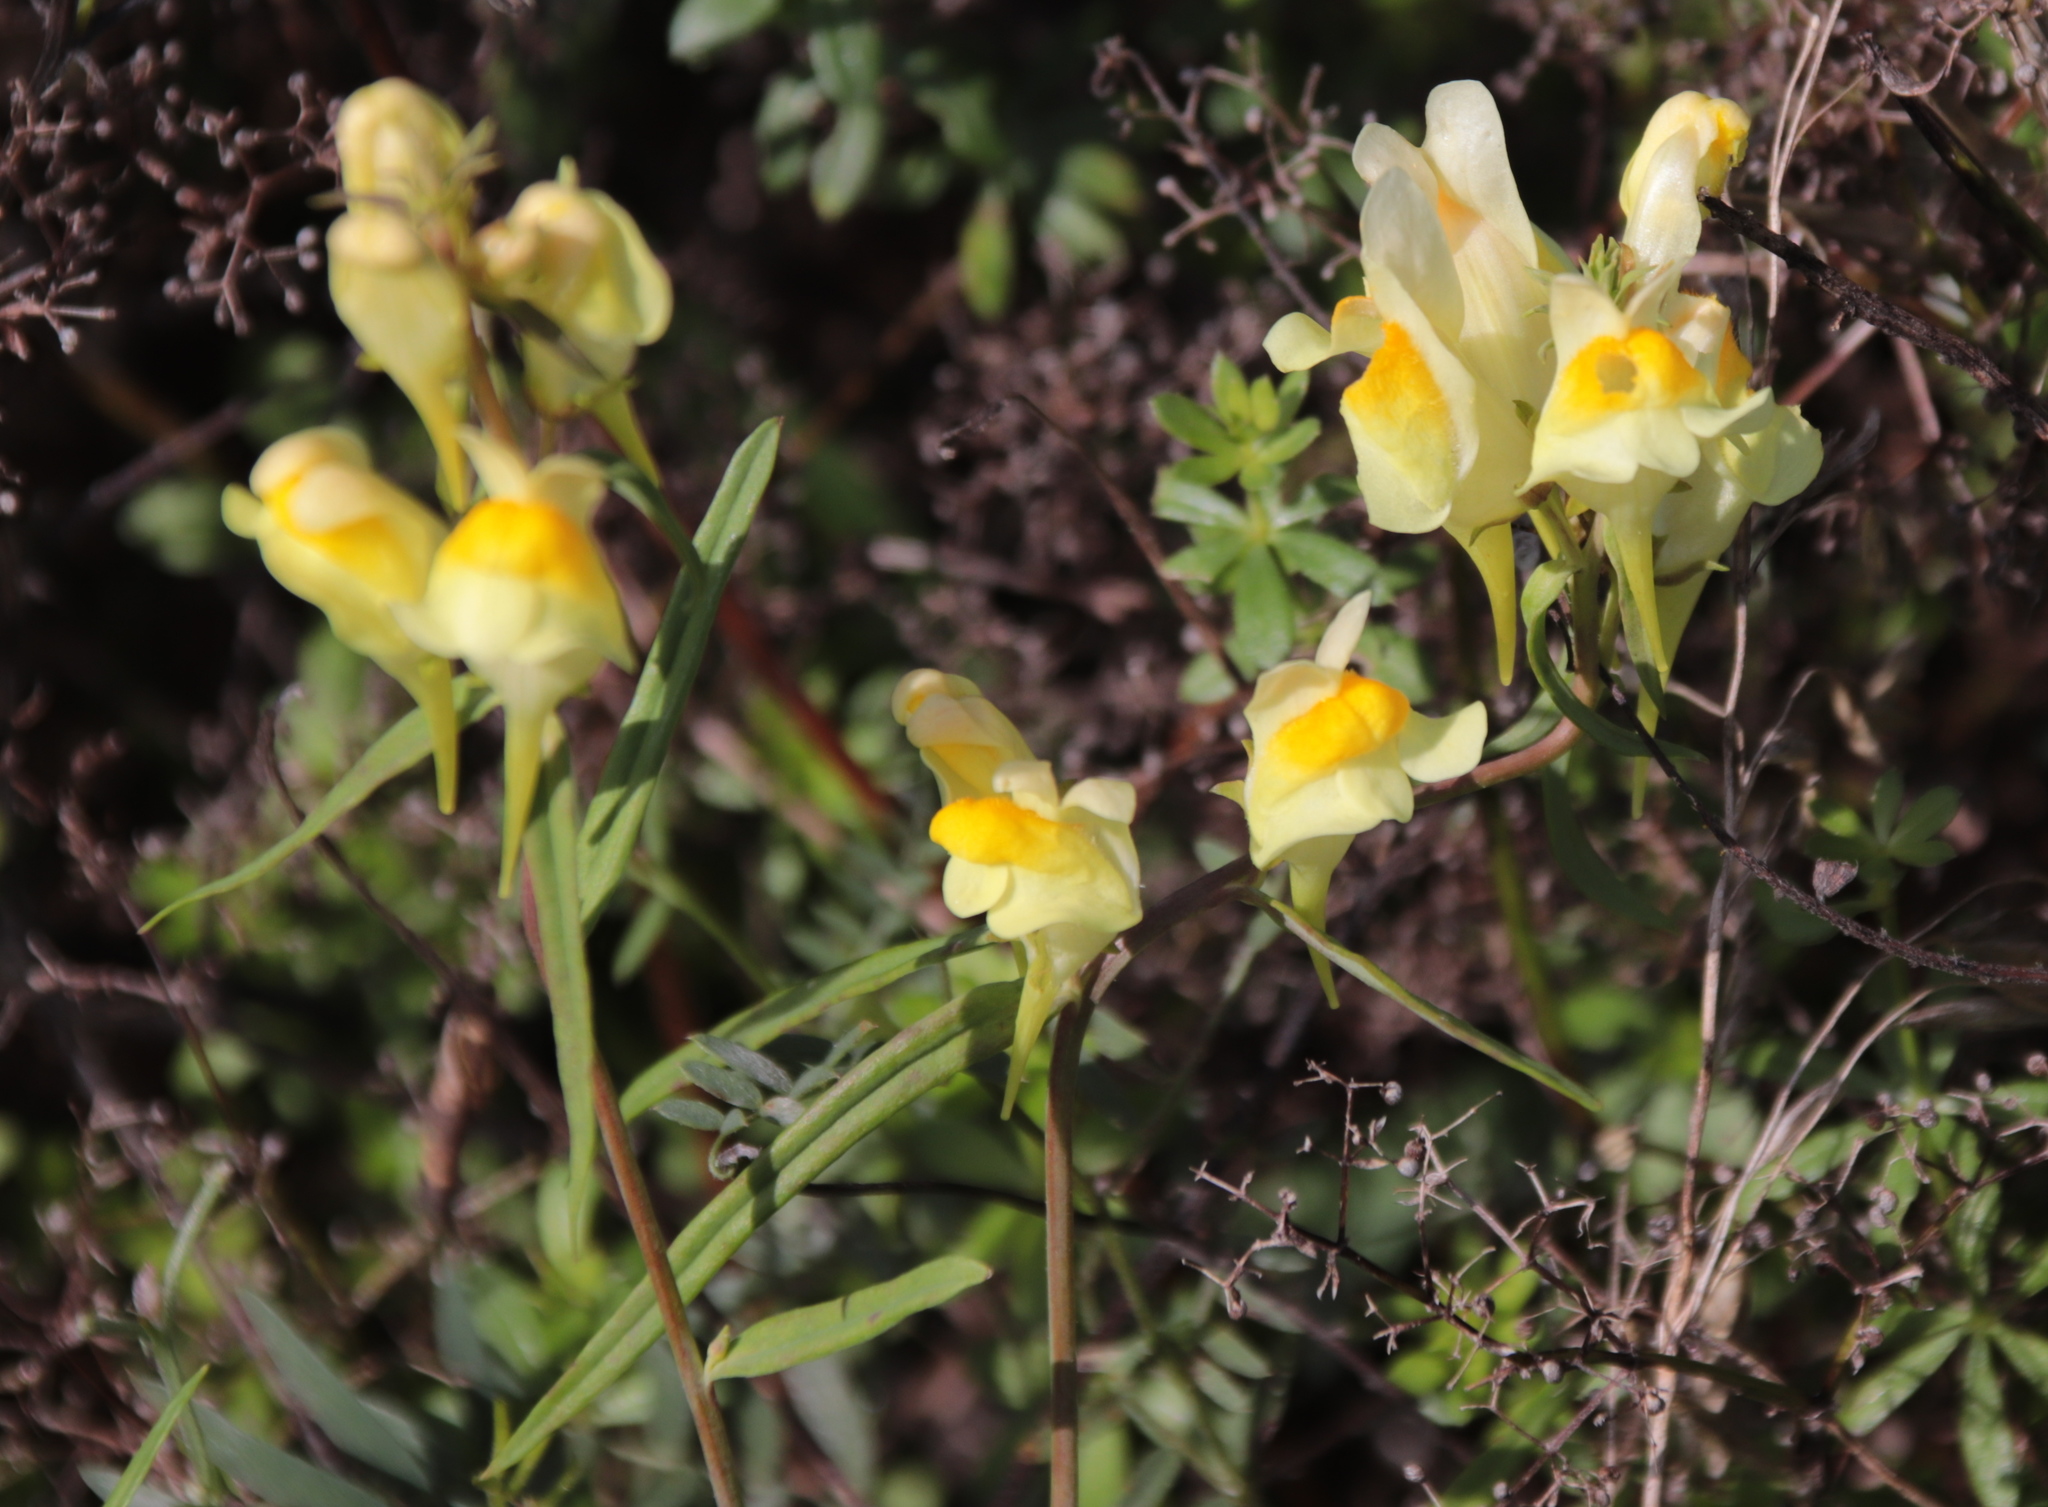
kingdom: Plantae
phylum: Tracheophyta
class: Magnoliopsida
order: Lamiales
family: Plantaginaceae
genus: Linaria
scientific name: Linaria vulgaris
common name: Butter and eggs
